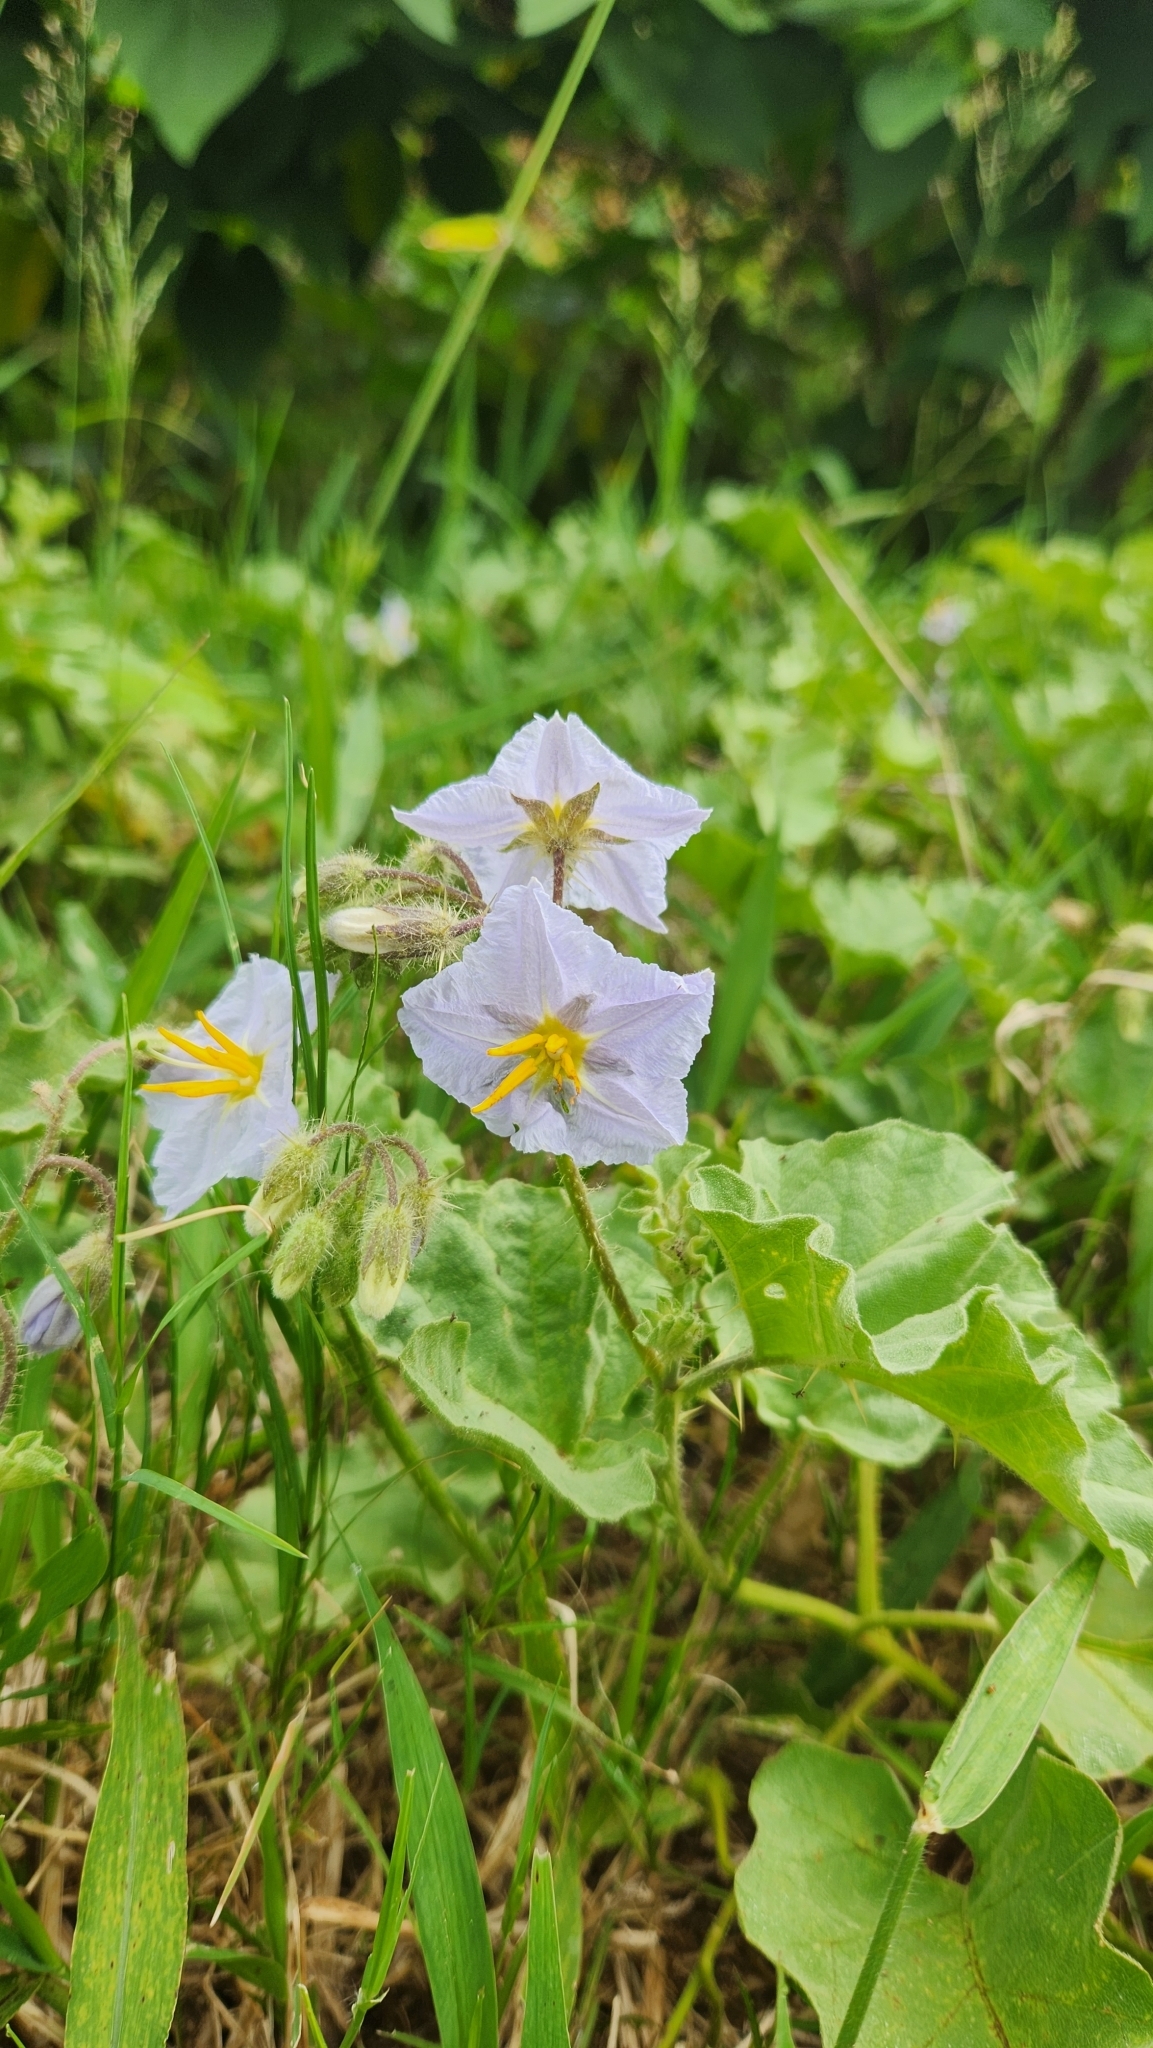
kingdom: Plantae
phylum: Tracheophyta
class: Magnoliopsida
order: Solanales
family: Solanaceae
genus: Solanum
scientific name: Solanum comptum
